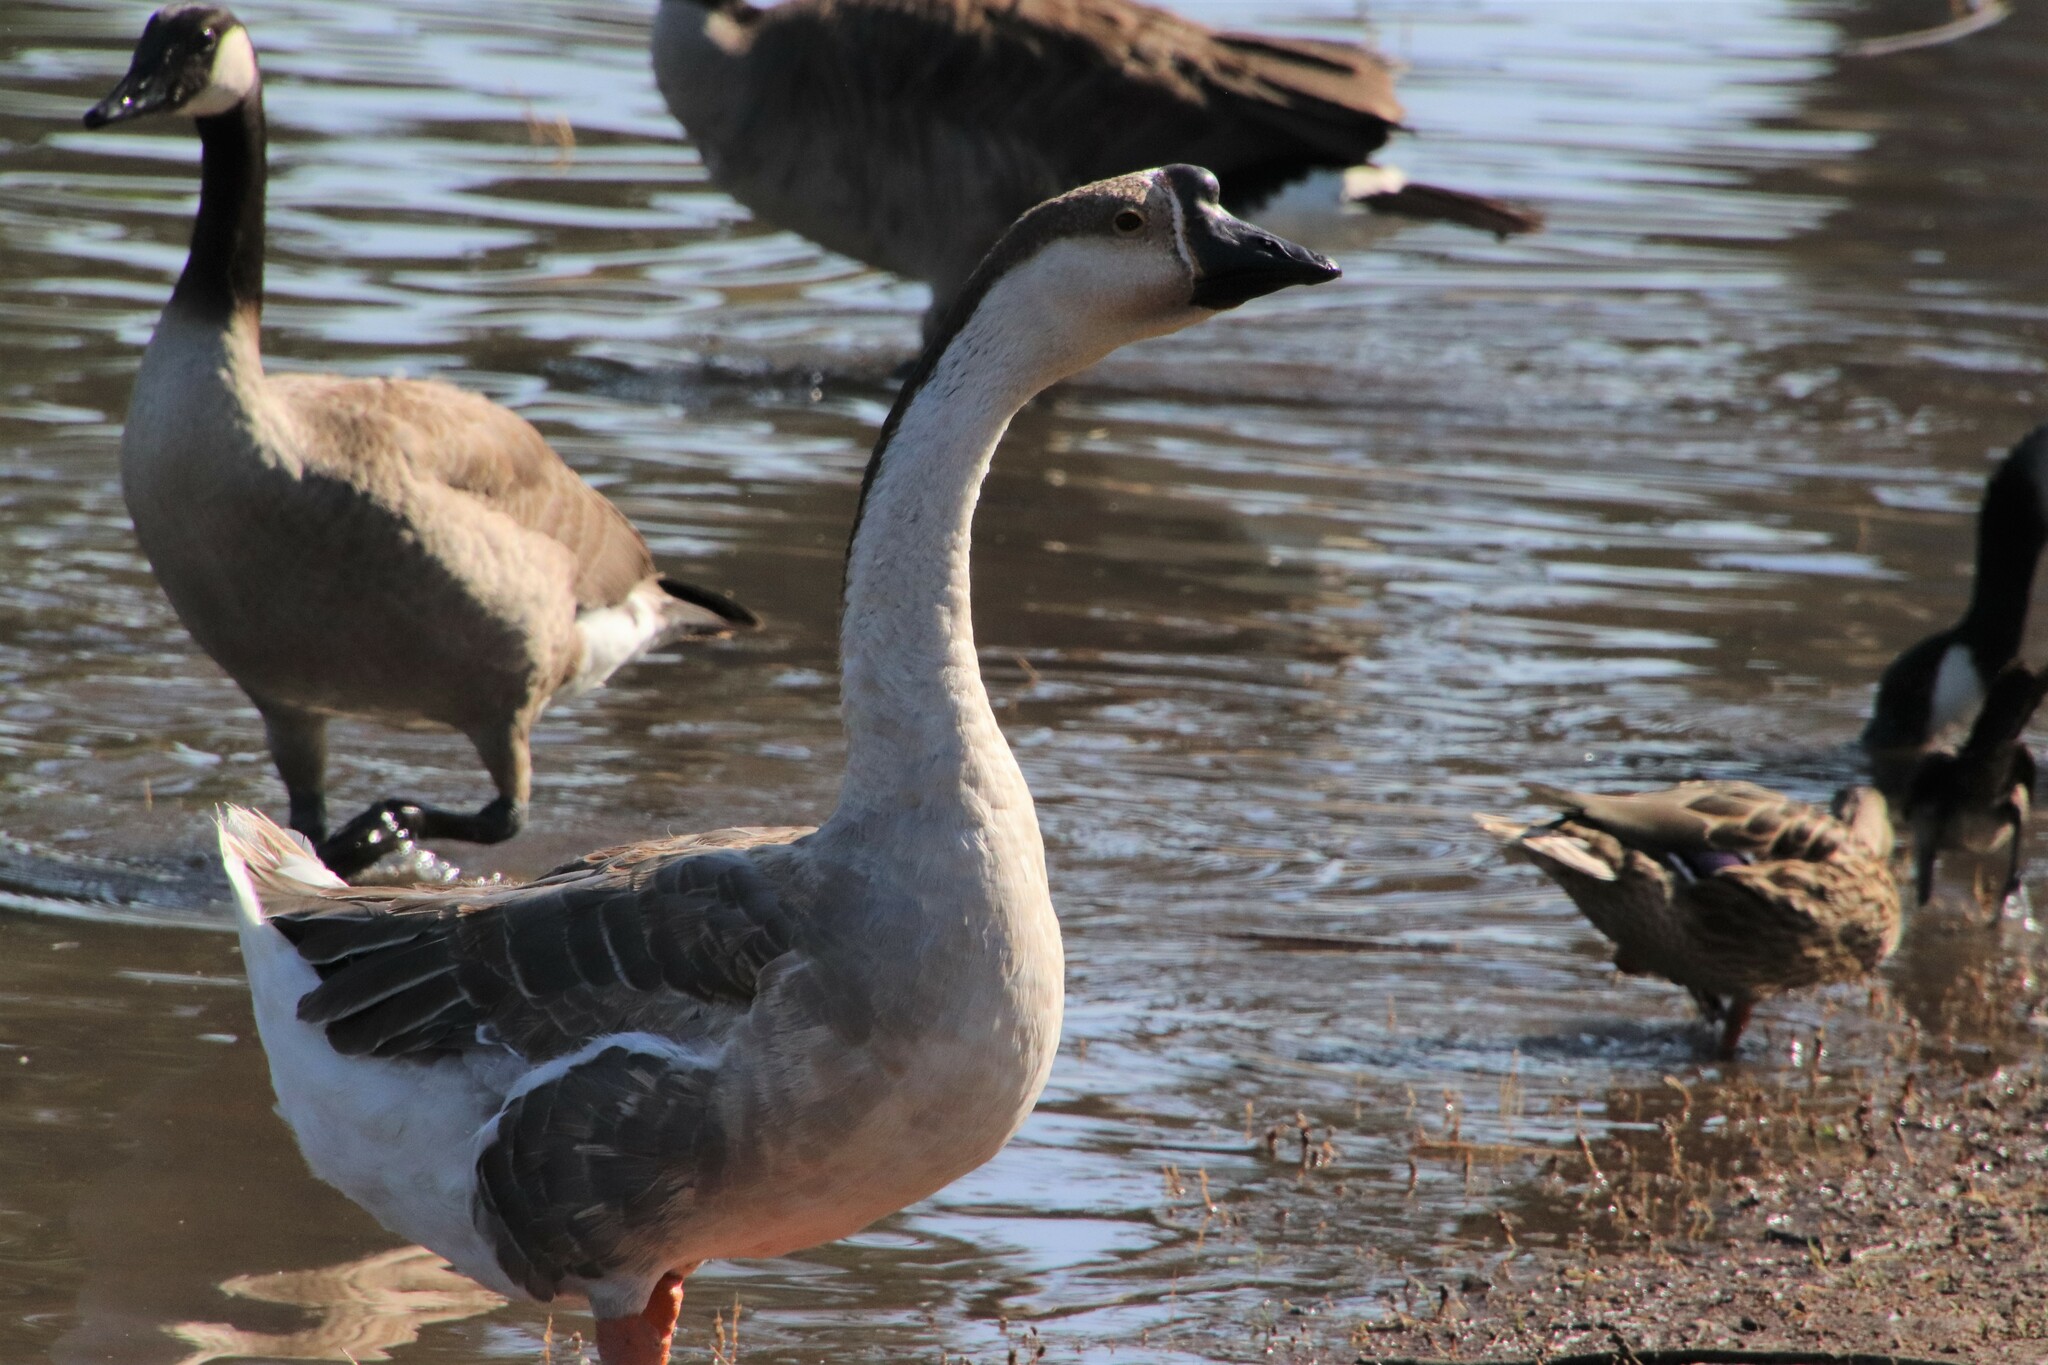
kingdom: Animalia
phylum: Chordata
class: Aves
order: Anseriformes
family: Anatidae
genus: Anser
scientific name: Anser cygnoides
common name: Swan goose
